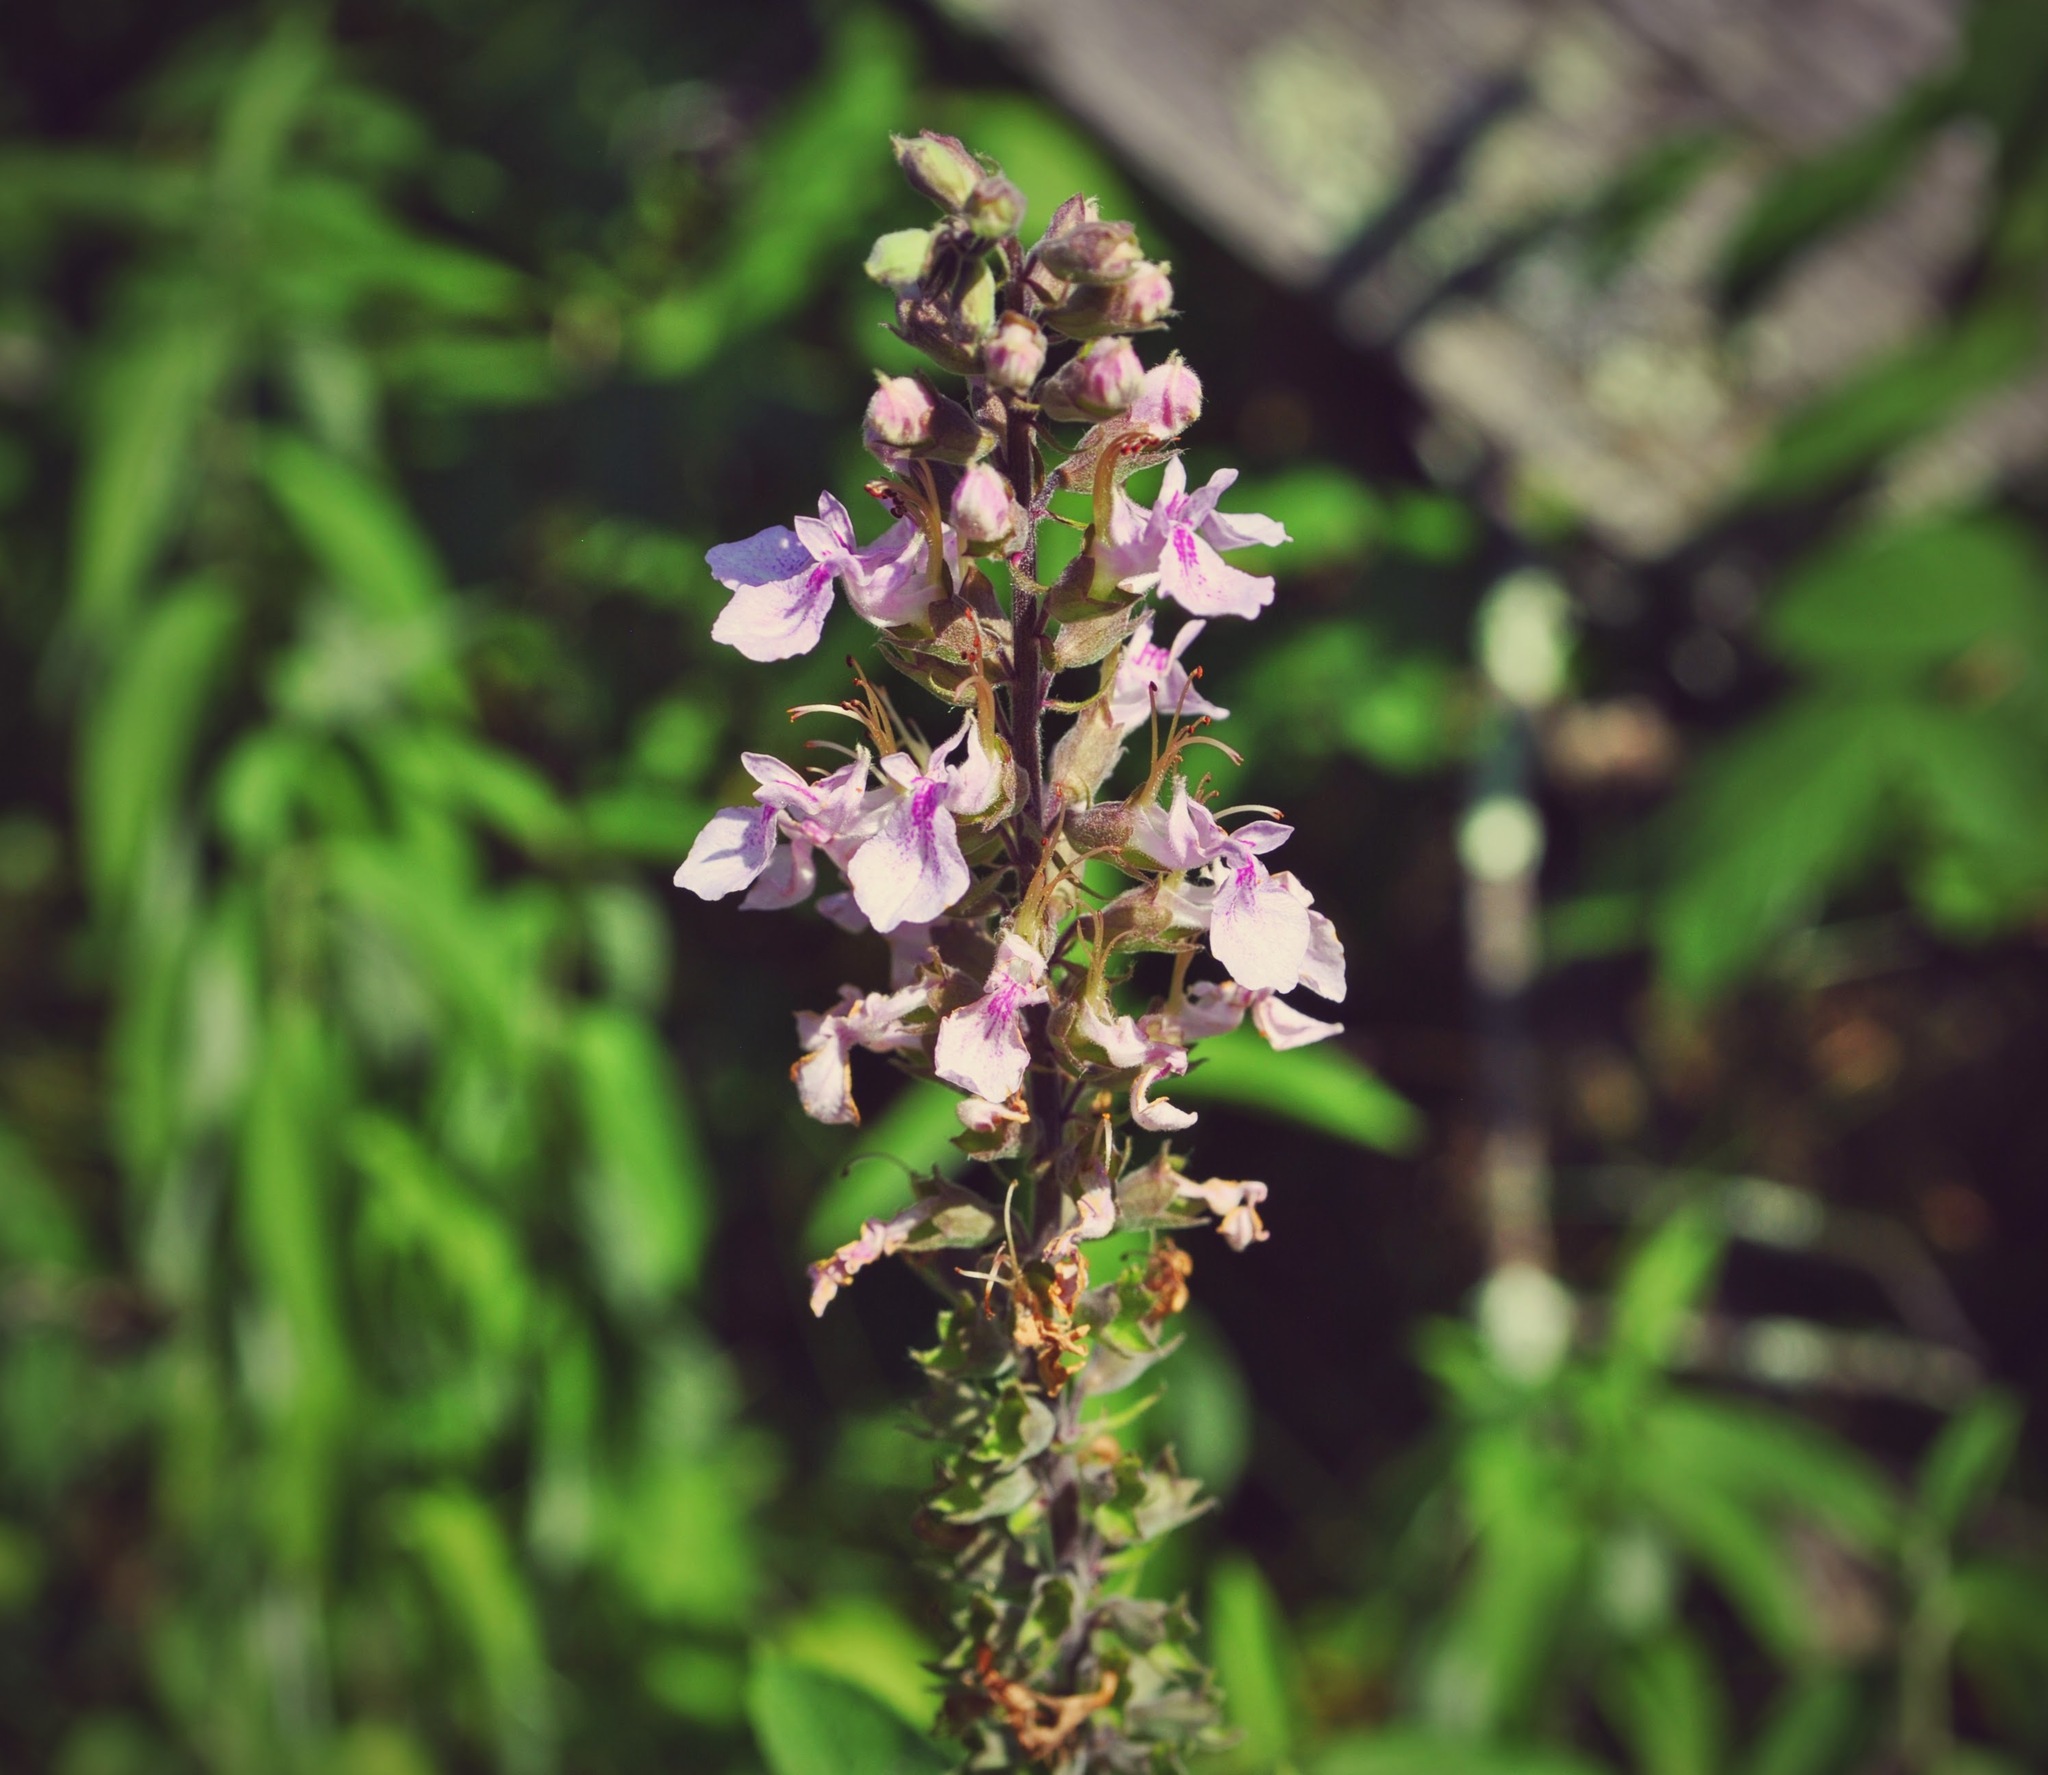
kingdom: Plantae
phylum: Tracheophyta
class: Magnoliopsida
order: Lamiales
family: Lamiaceae
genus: Teucrium
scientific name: Teucrium canadense
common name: American germander
